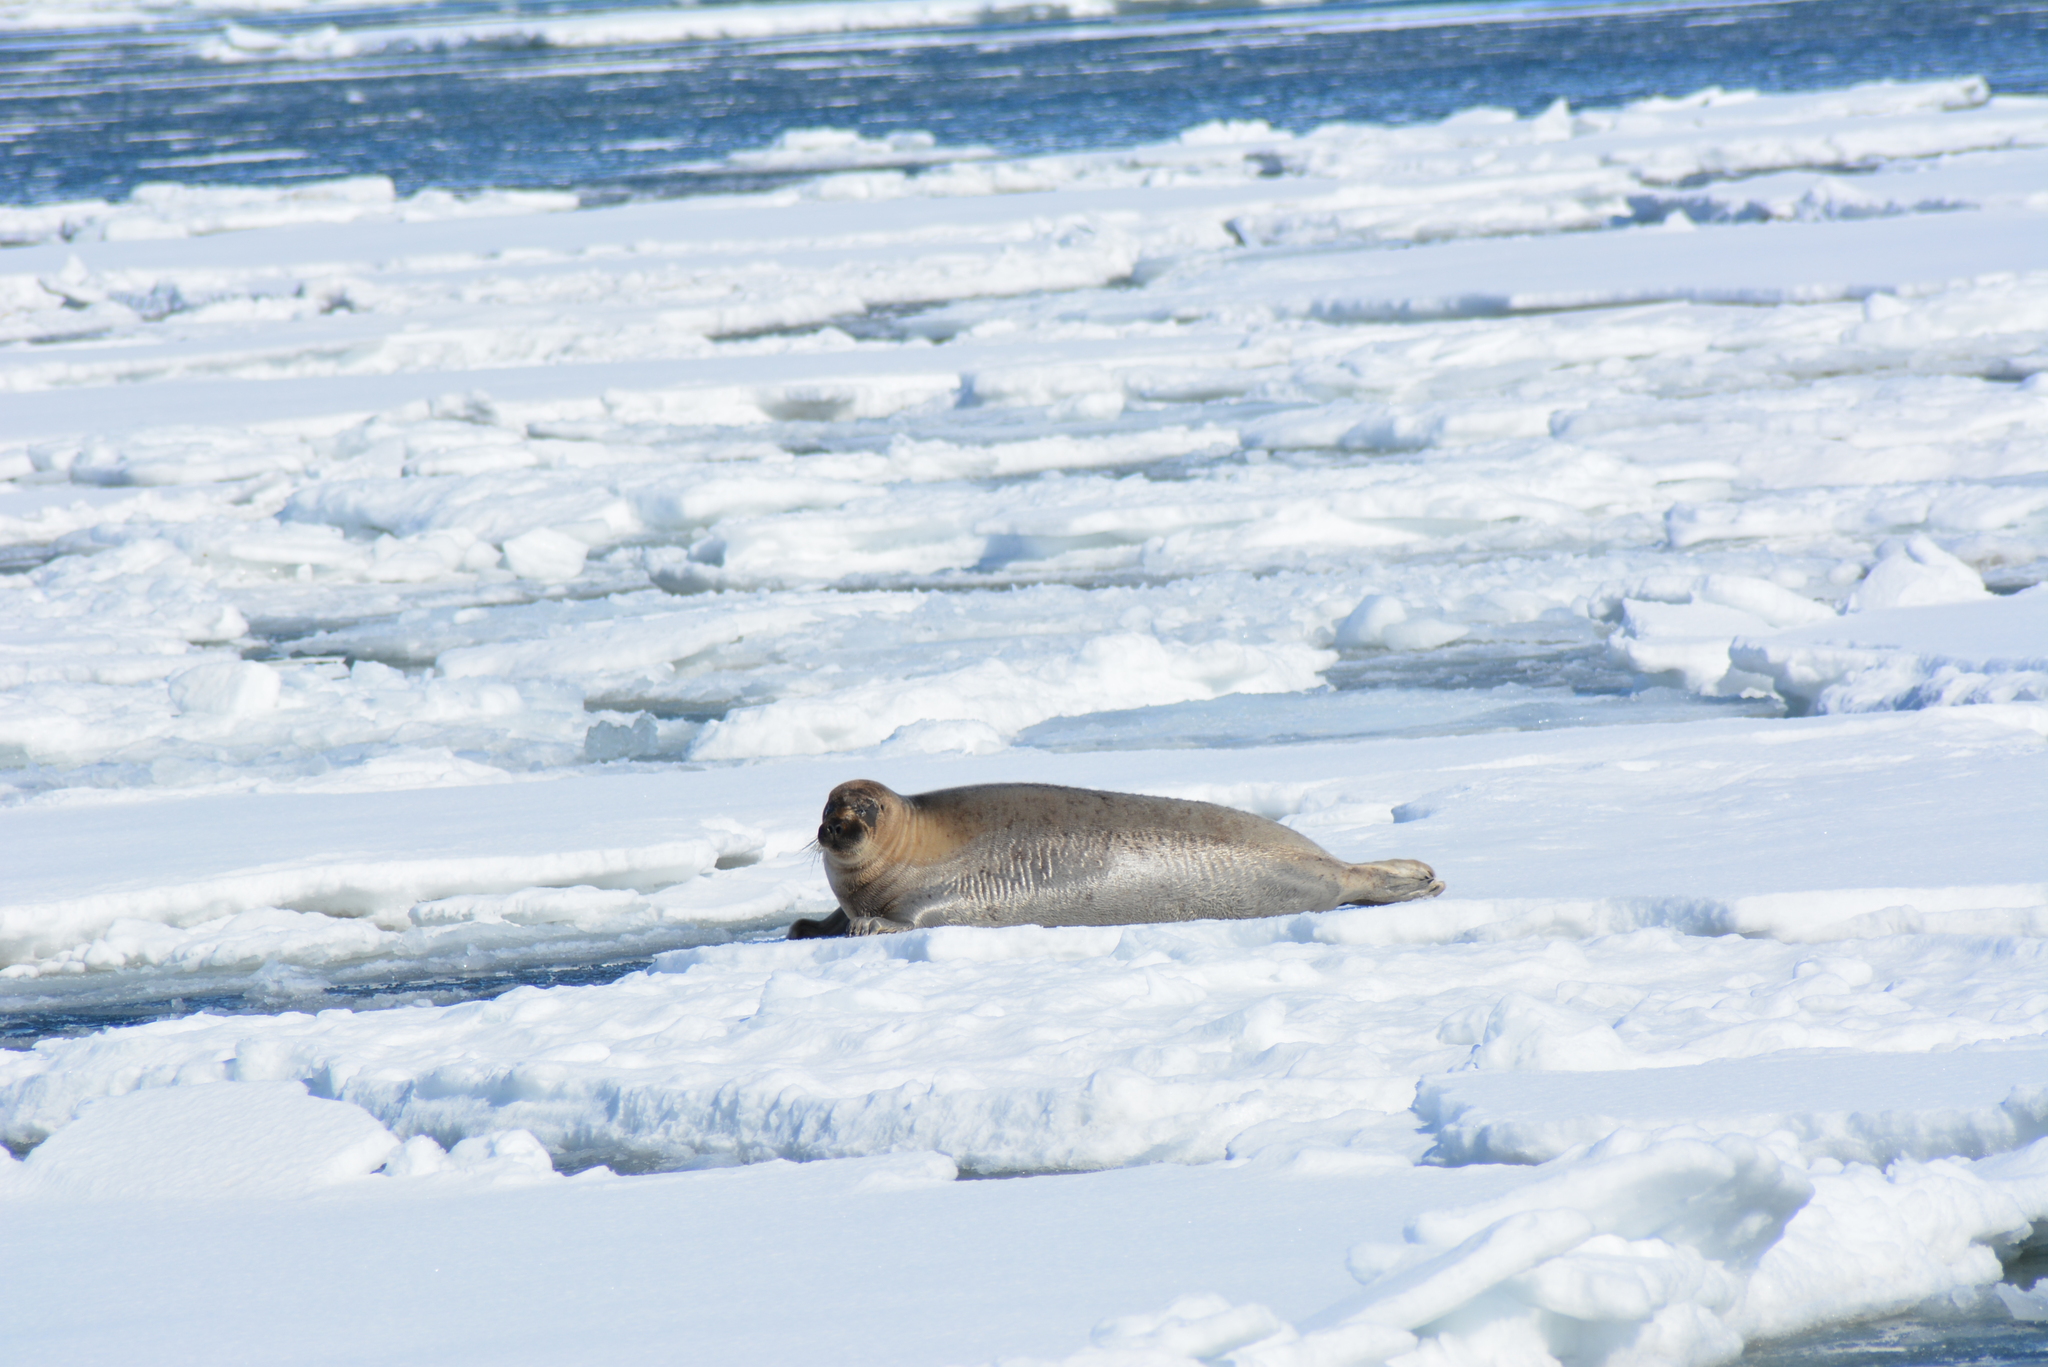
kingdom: Animalia
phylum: Chordata
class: Mammalia
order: Carnivora
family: Phocidae
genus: Erignathus
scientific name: Erignathus barbatus
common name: Bearded seal
